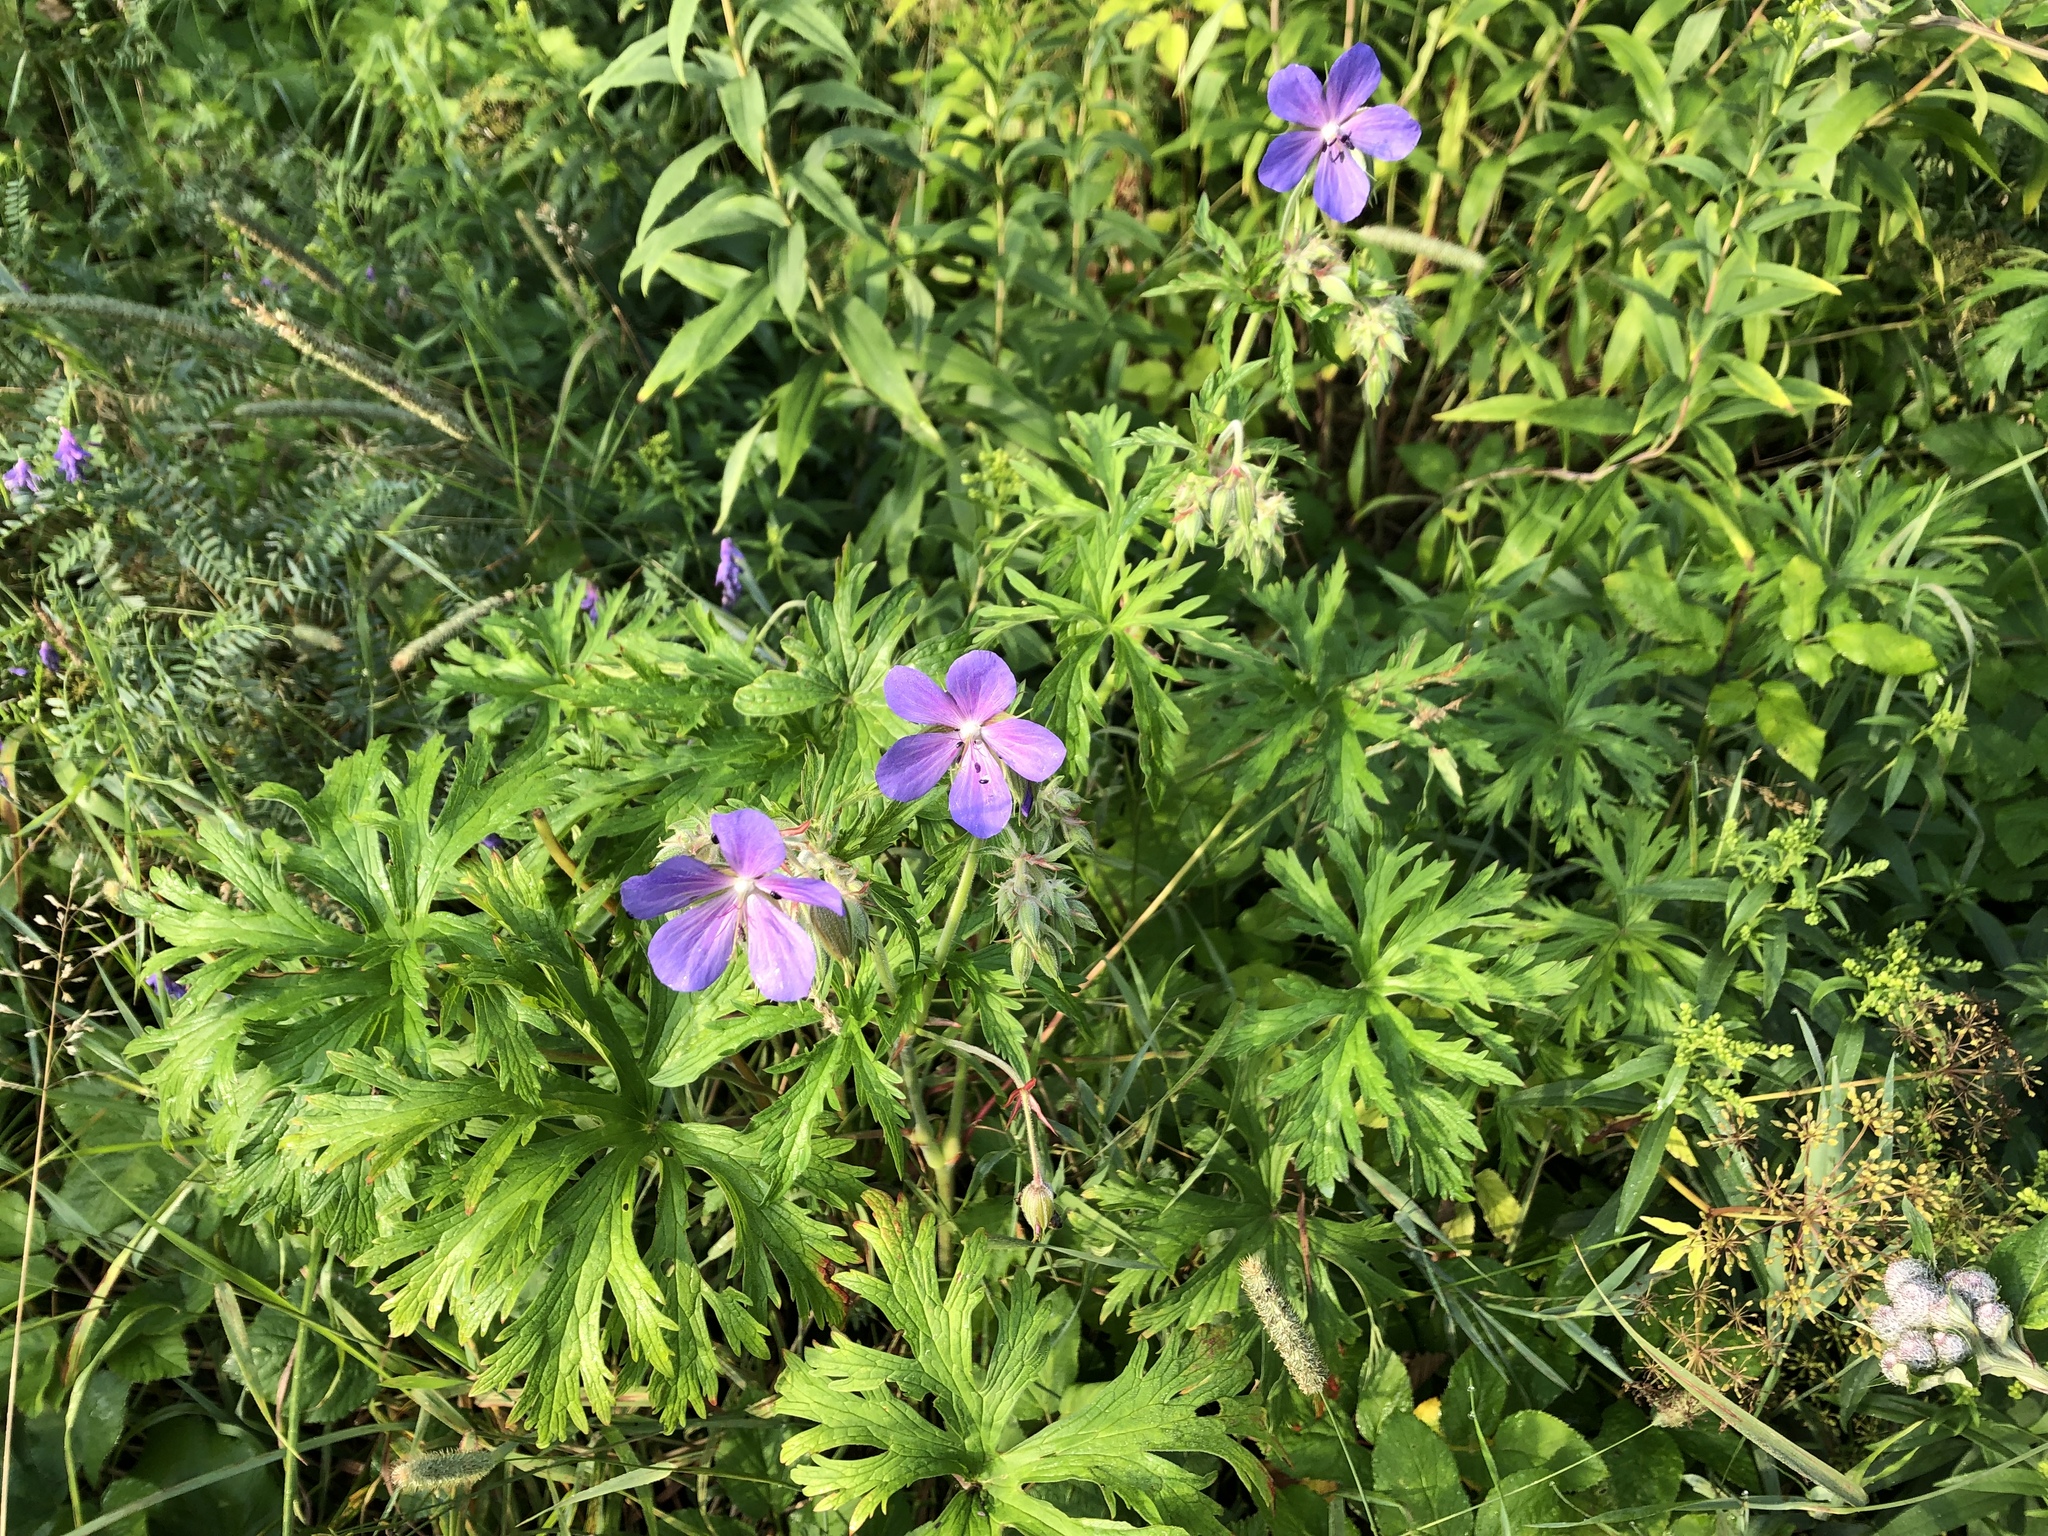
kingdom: Plantae
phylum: Tracheophyta
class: Magnoliopsida
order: Geraniales
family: Geraniaceae
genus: Geranium
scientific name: Geranium pratense
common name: Meadow crane's-bill
